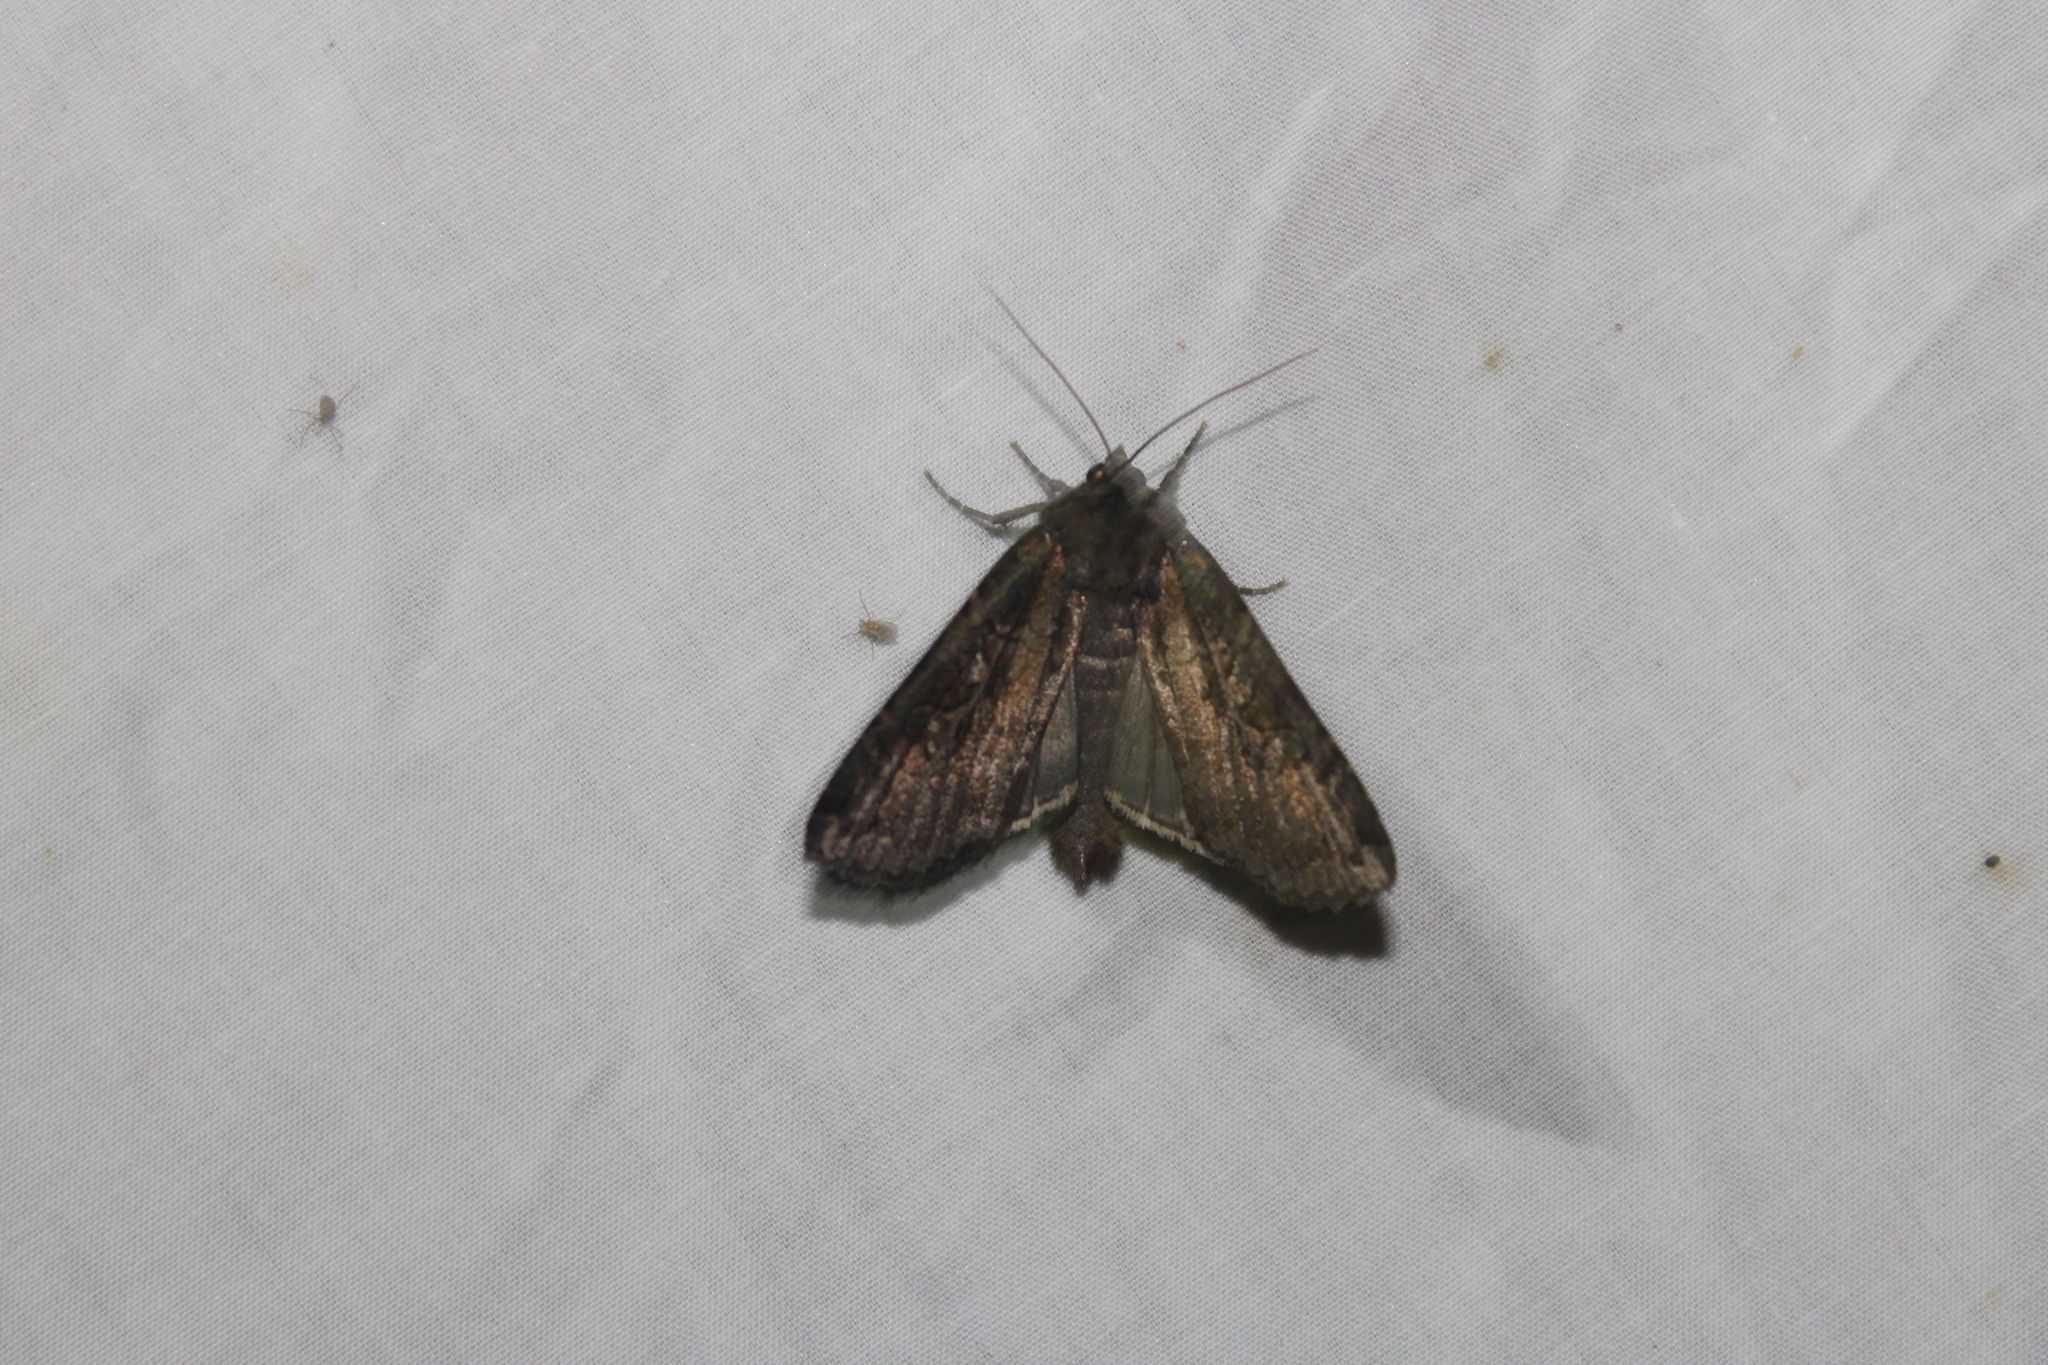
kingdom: Animalia
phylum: Arthropoda
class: Insecta
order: Lepidoptera
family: Noctuidae
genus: Peridroma
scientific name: Peridroma saucia
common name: Pearly underwing
